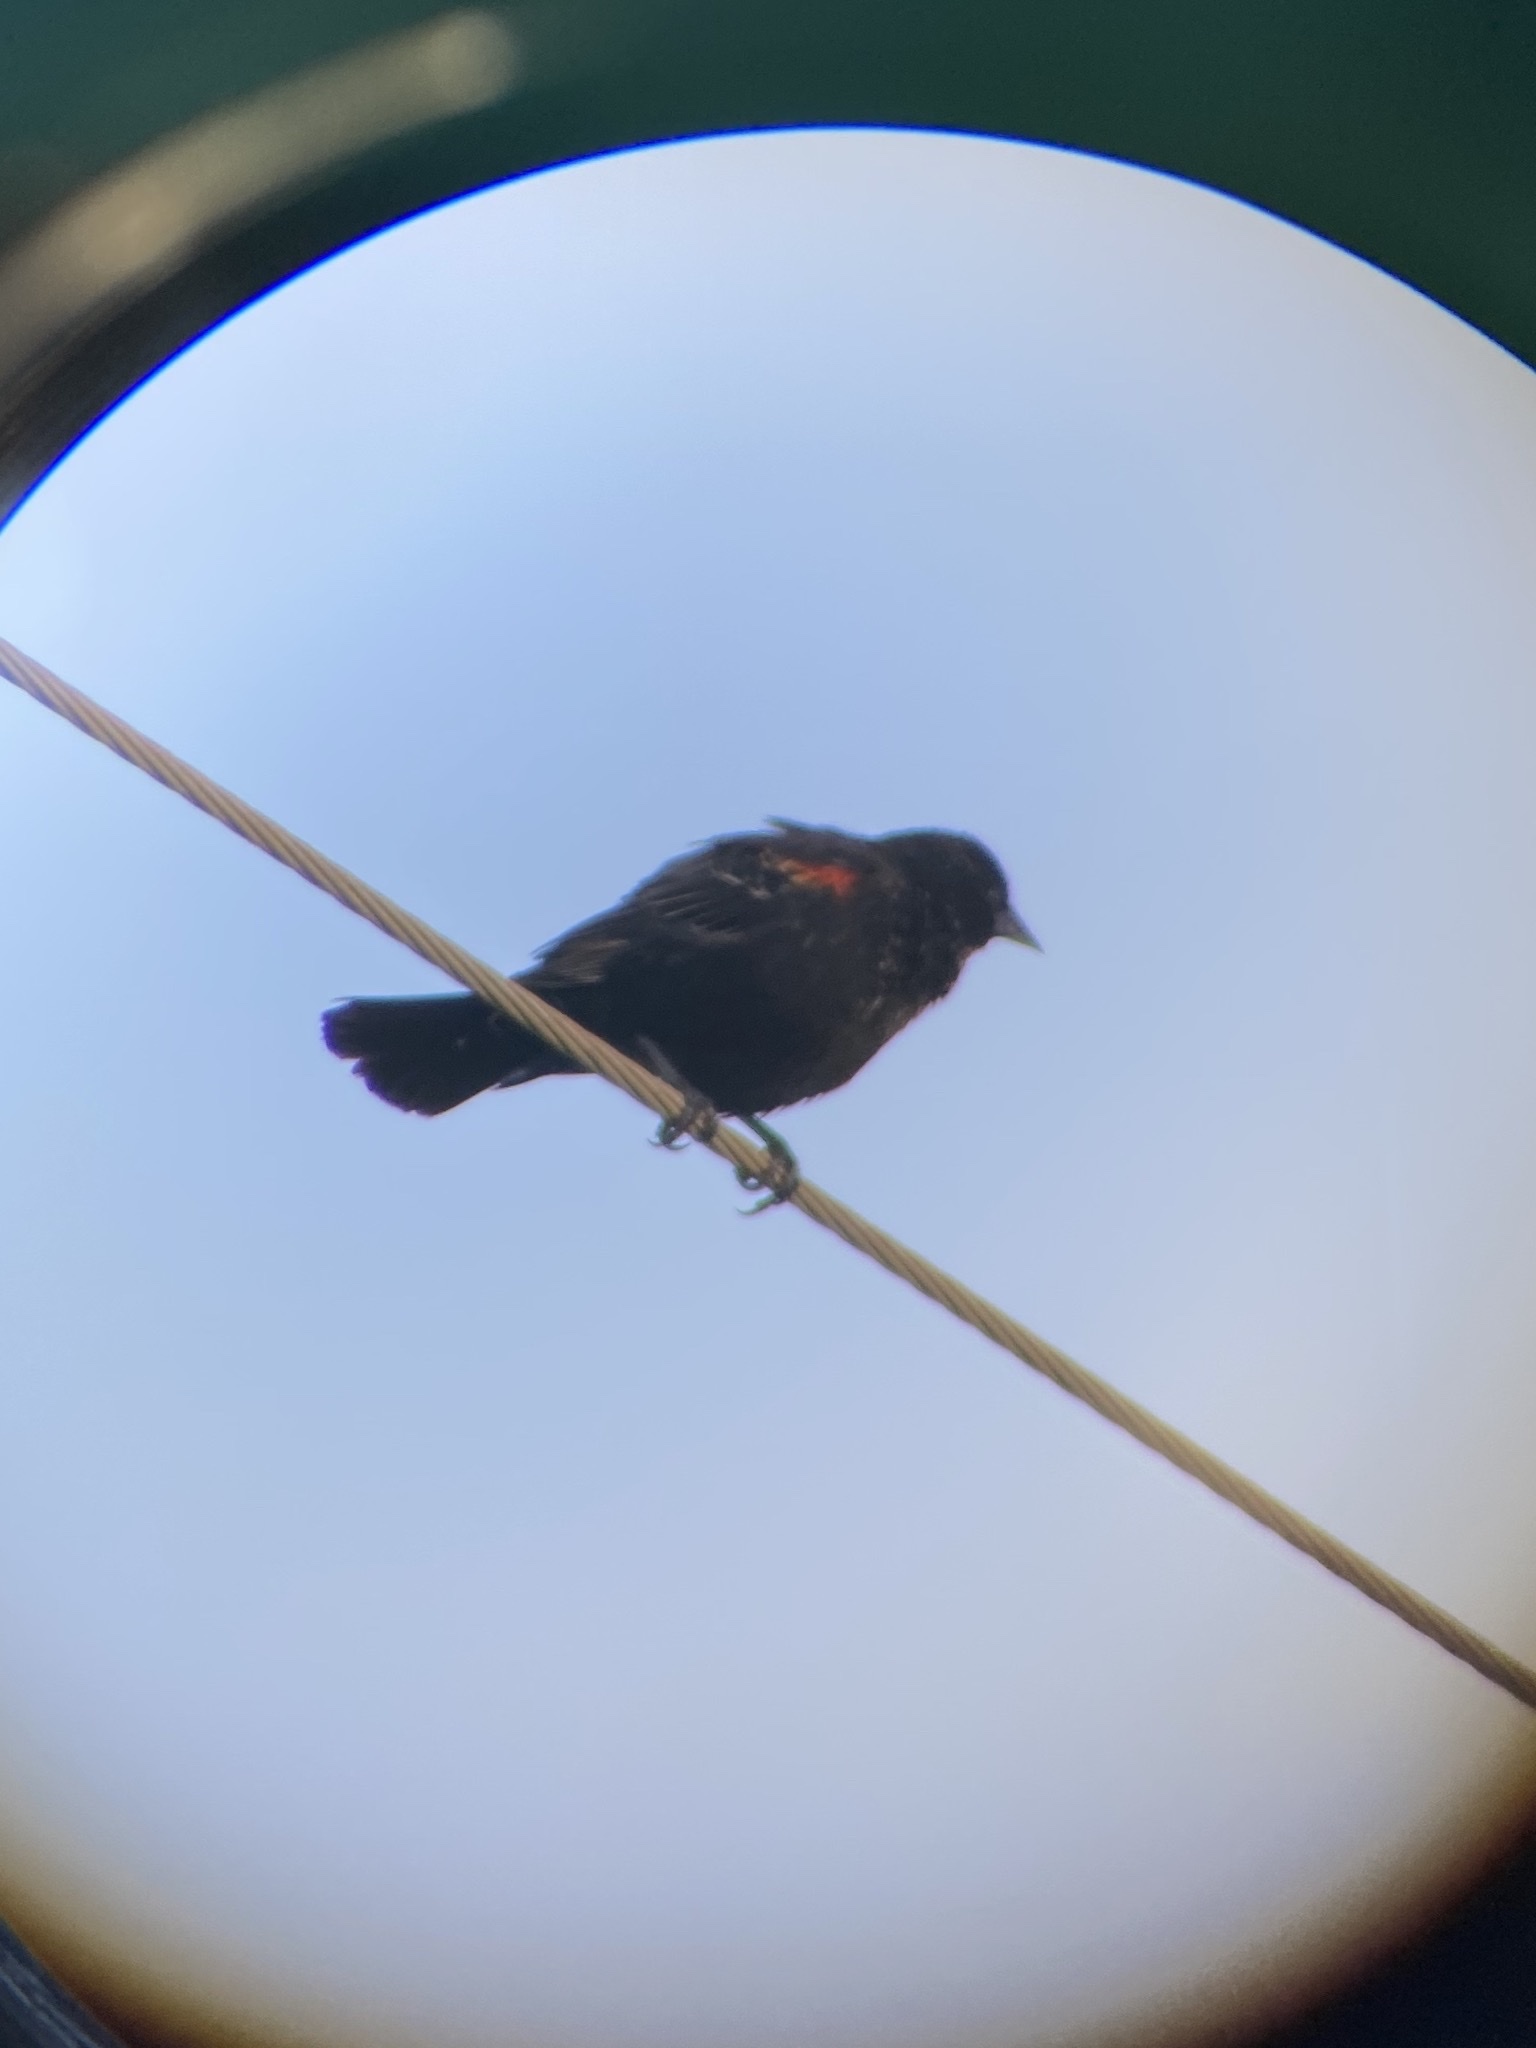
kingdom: Animalia
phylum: Chordata
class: Aves
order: Passeriformes
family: Icteridae
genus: Agelaius
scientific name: Agelaius phoeniceus
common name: Red-winged blackbird
